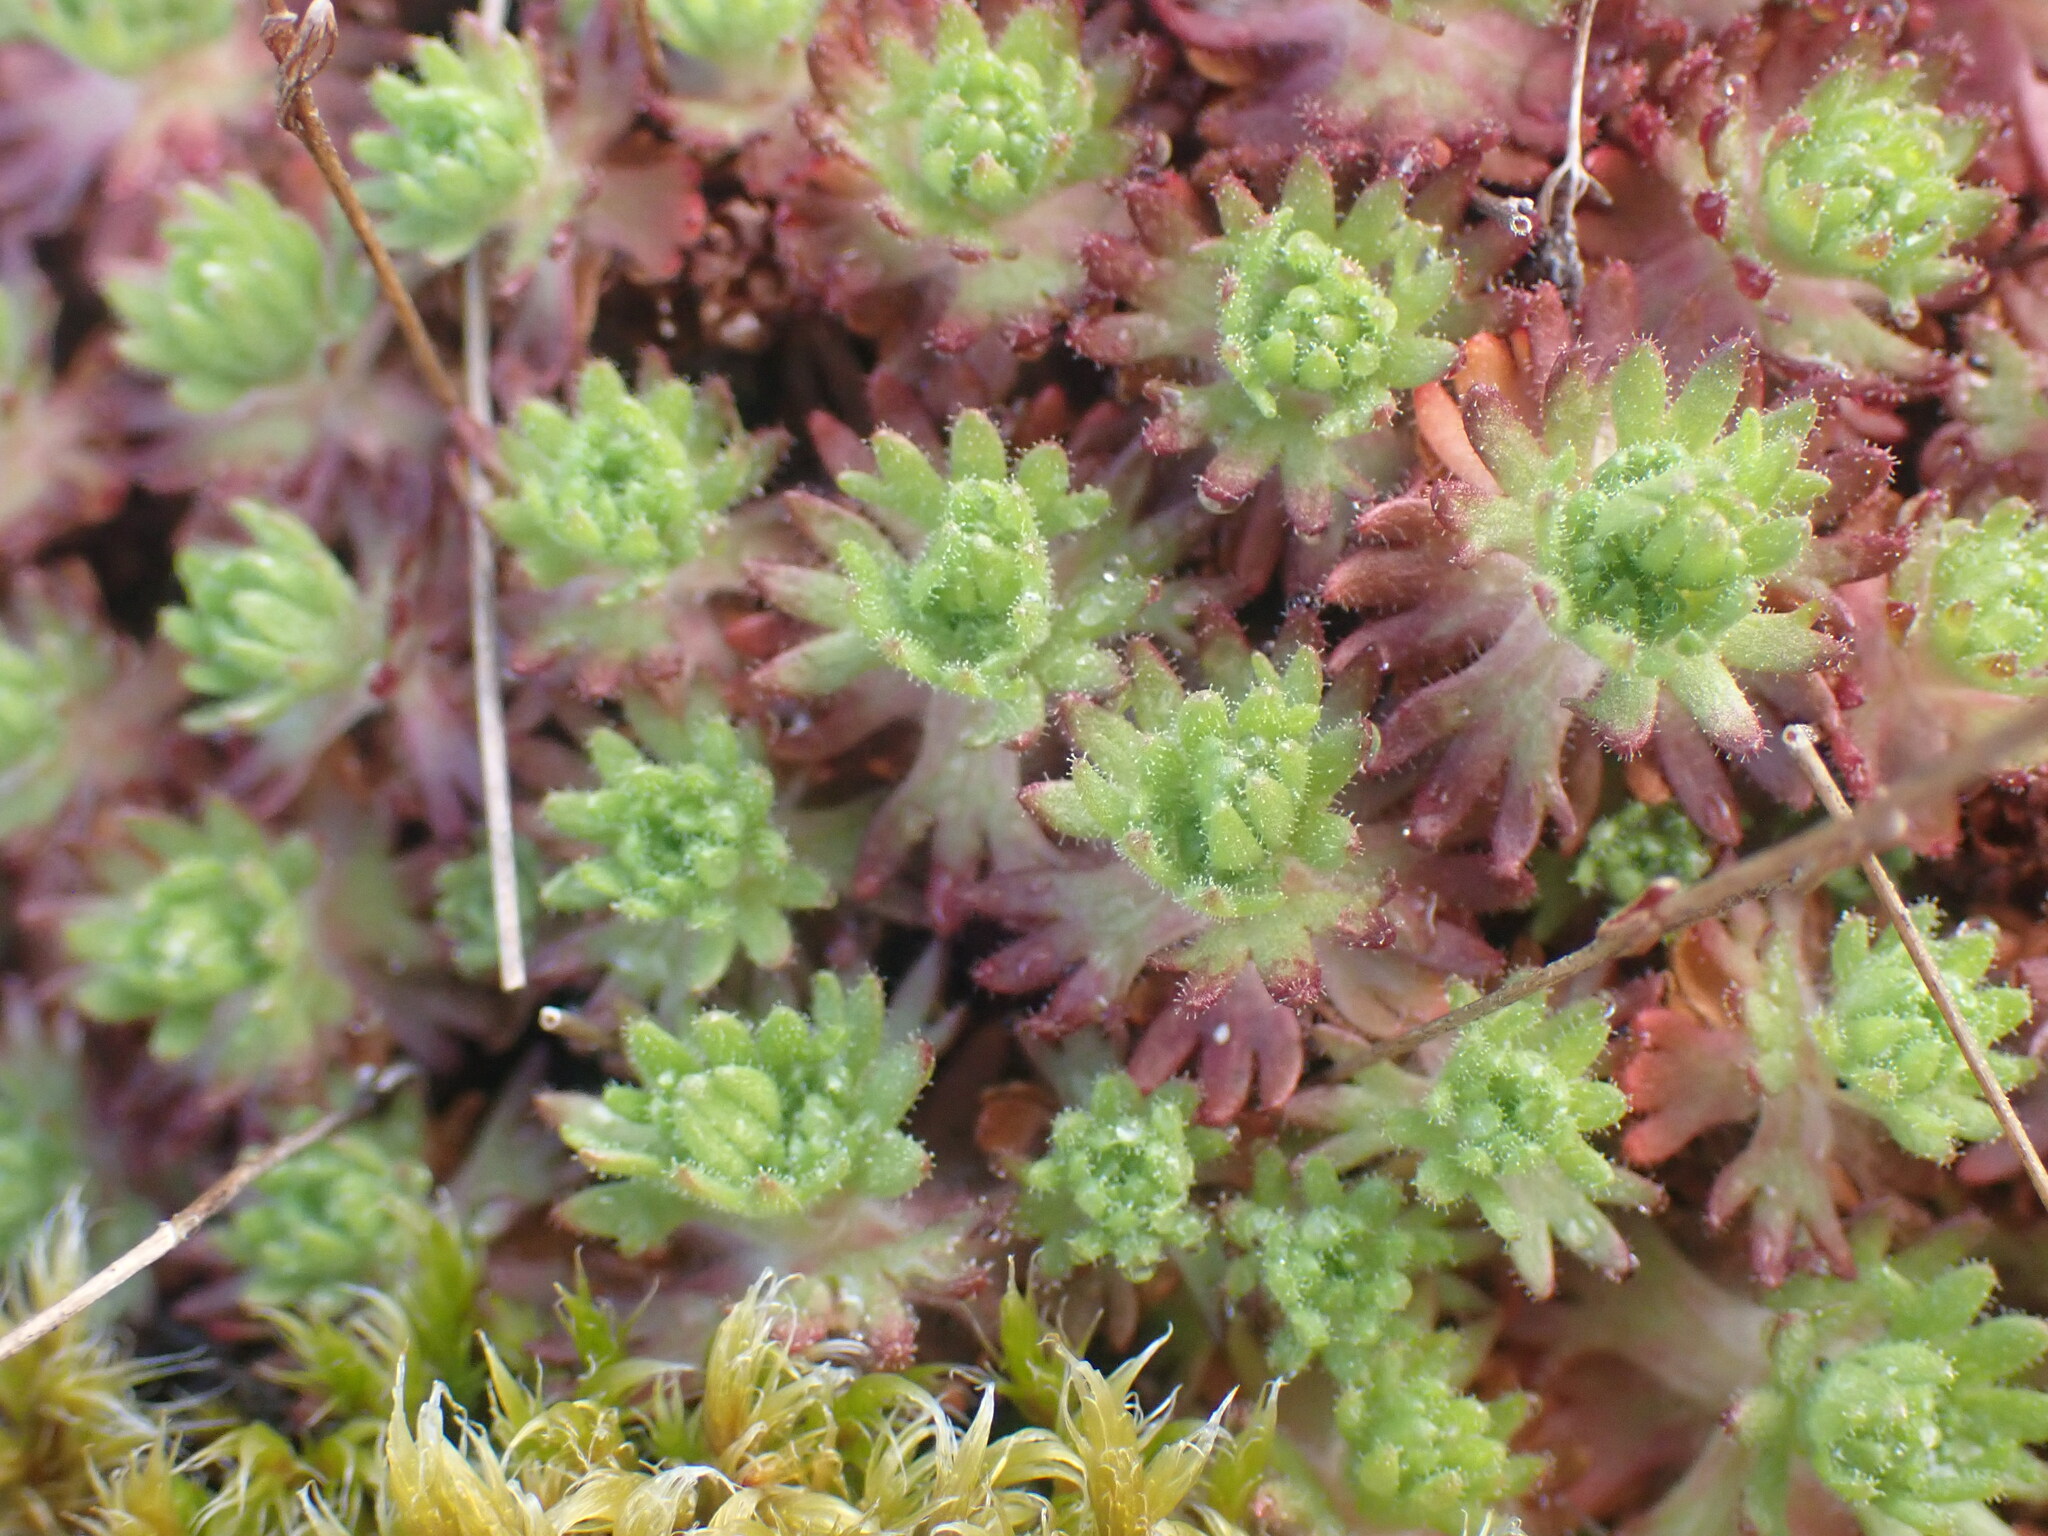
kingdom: Plantae
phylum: Tracheophyta
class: Magnoliopsida
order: Saxifragales
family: Saxifragaceae
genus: Saxifraga
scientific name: Saxifraga cespitosa
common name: Tufted saxifrage
